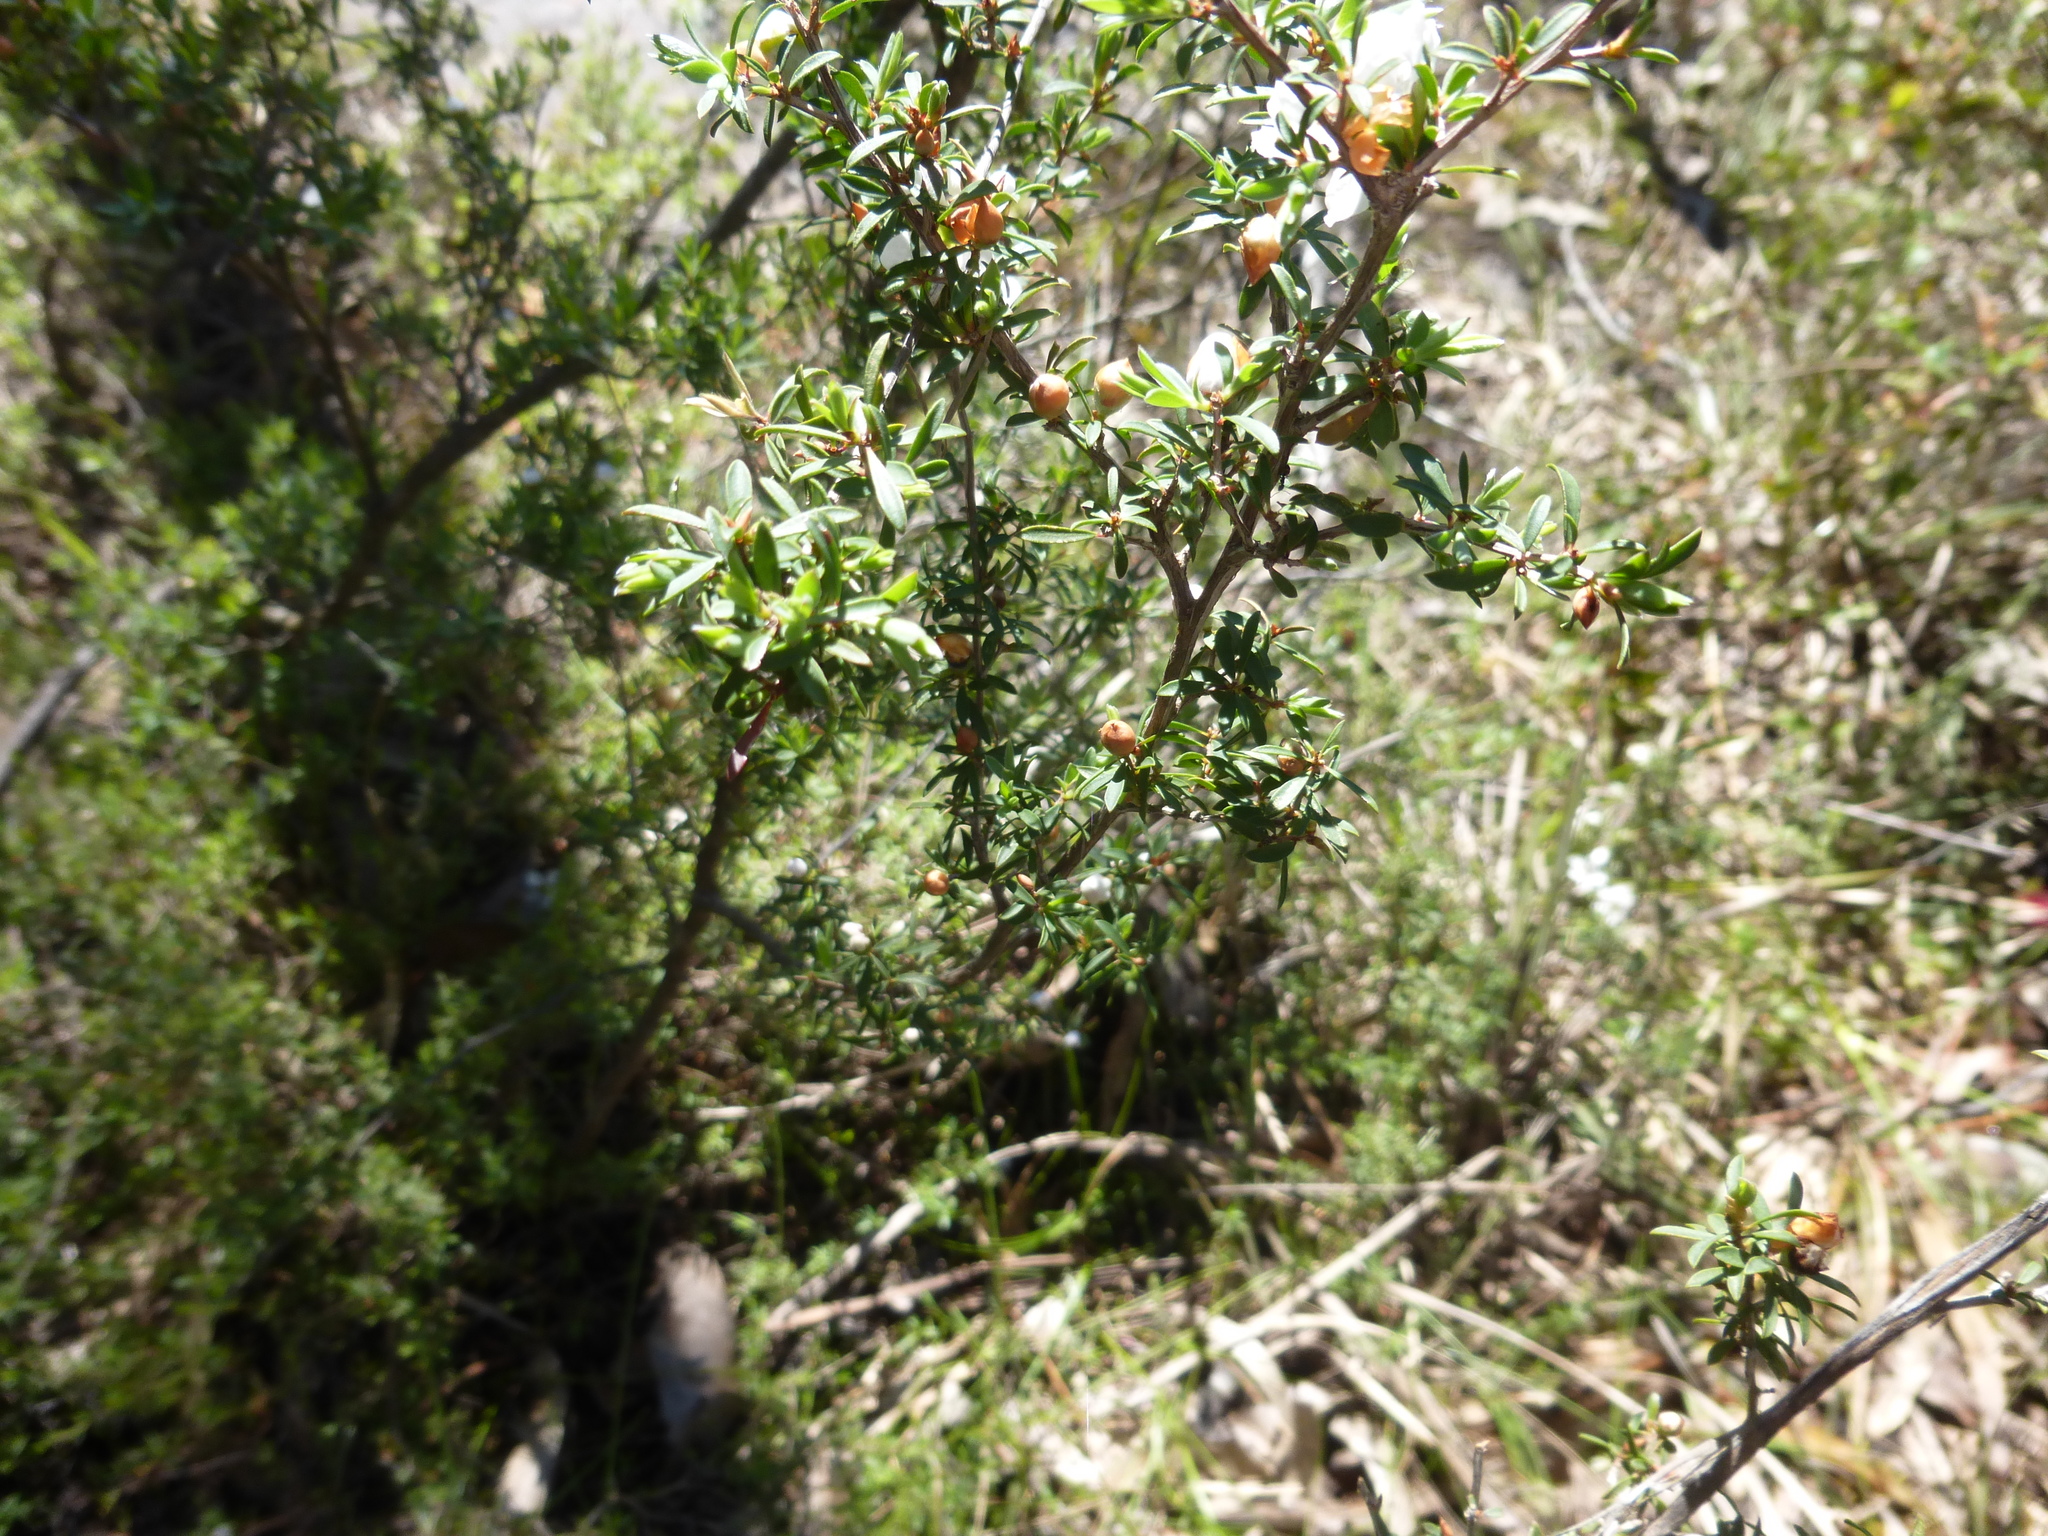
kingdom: Plantae
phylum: Tracheophyta
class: Magnoliopsida
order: Myrtales
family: Myrtaceae
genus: Leptospermum
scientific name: Leptospermum myrsinoides
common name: Heath teatree
